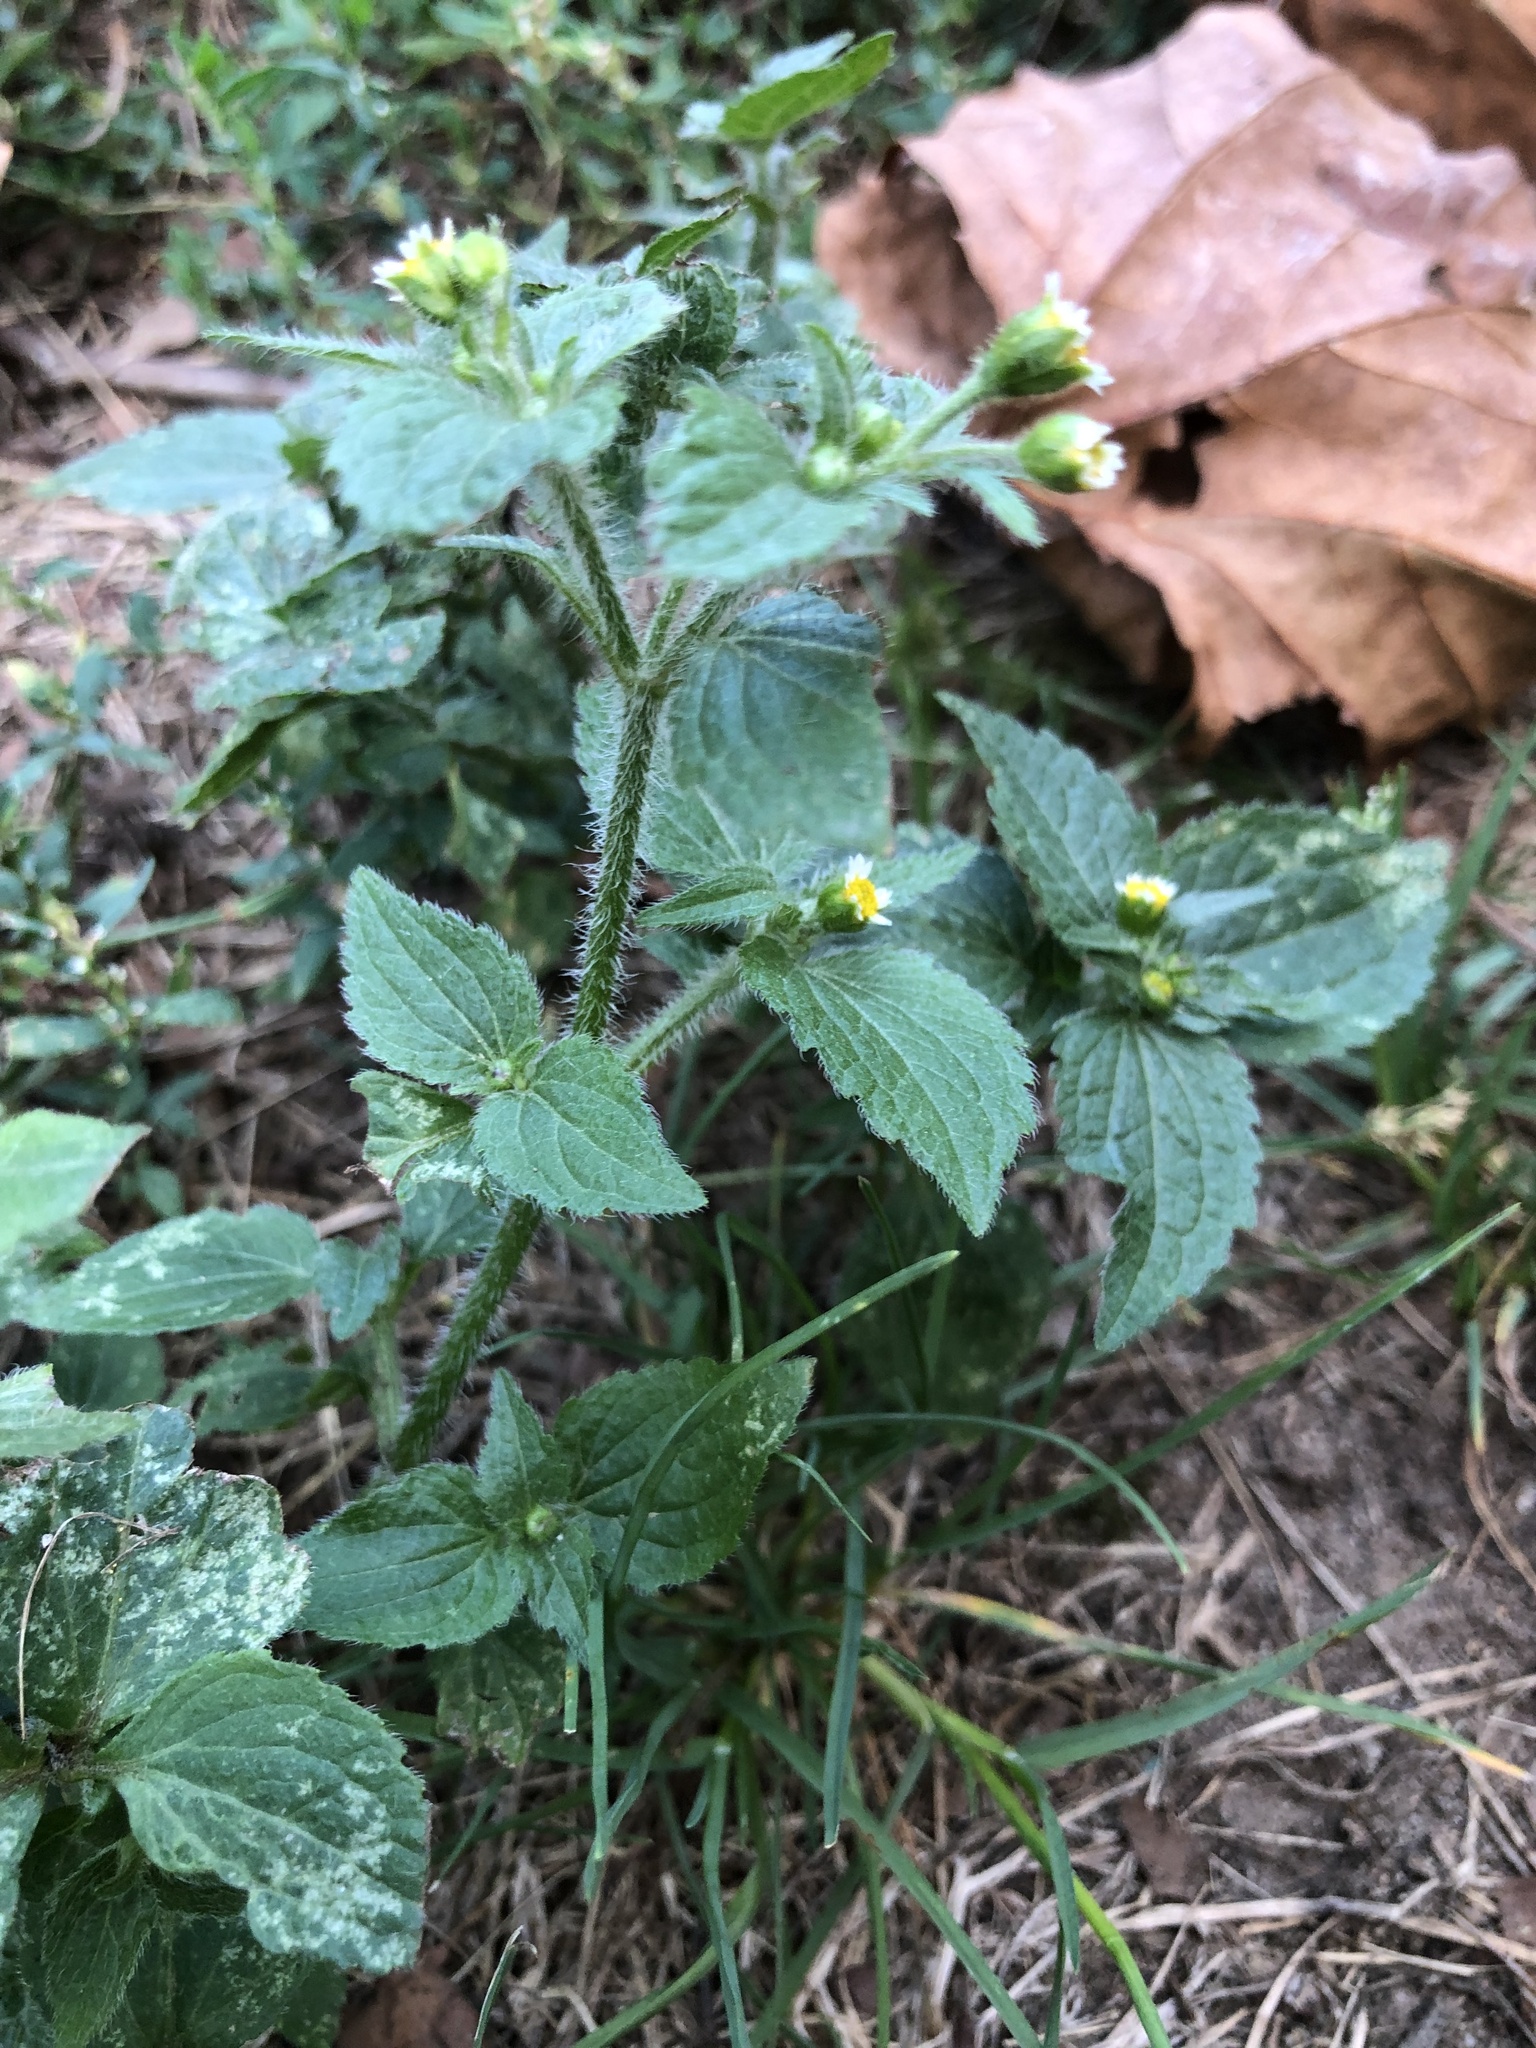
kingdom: Plantae
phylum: Tracheophyta
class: Magnoliopsida
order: Asterales
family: Asteraceae
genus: Galinsoga
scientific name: Galinsoga quadriradiata
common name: Shaggy soldier
